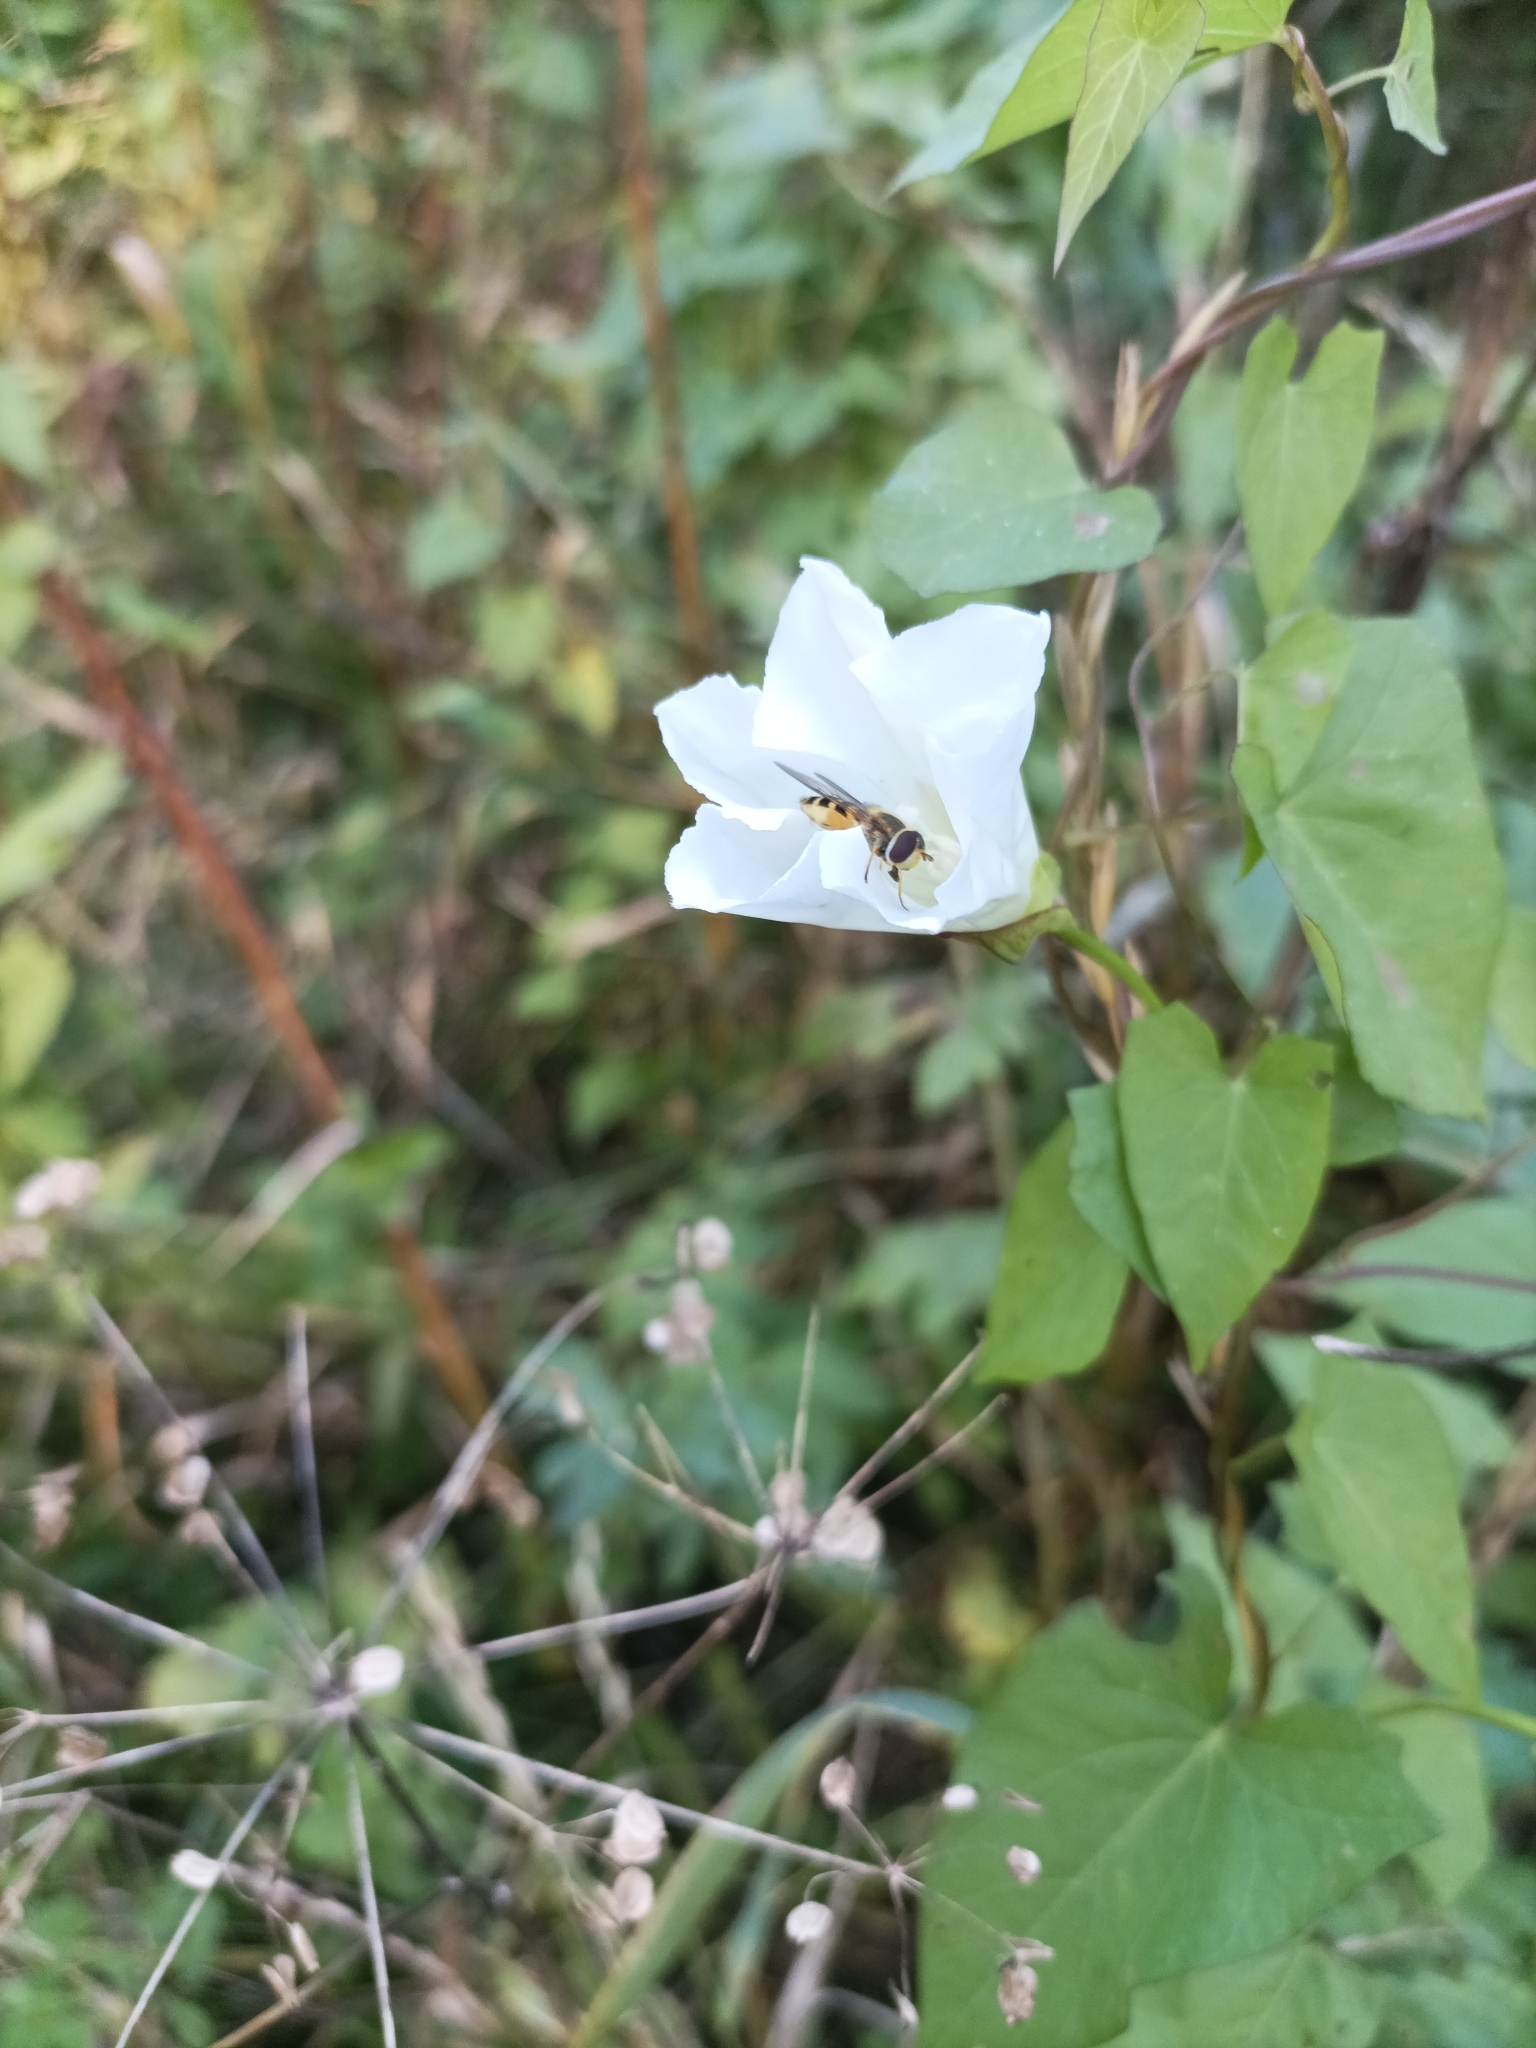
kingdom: Plantae
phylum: Tracheophyta
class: Magnoliopsida
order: Solanales
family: Convolvulaceae
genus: Calystegia
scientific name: Calystegia sepium
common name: Hedge bindweed
